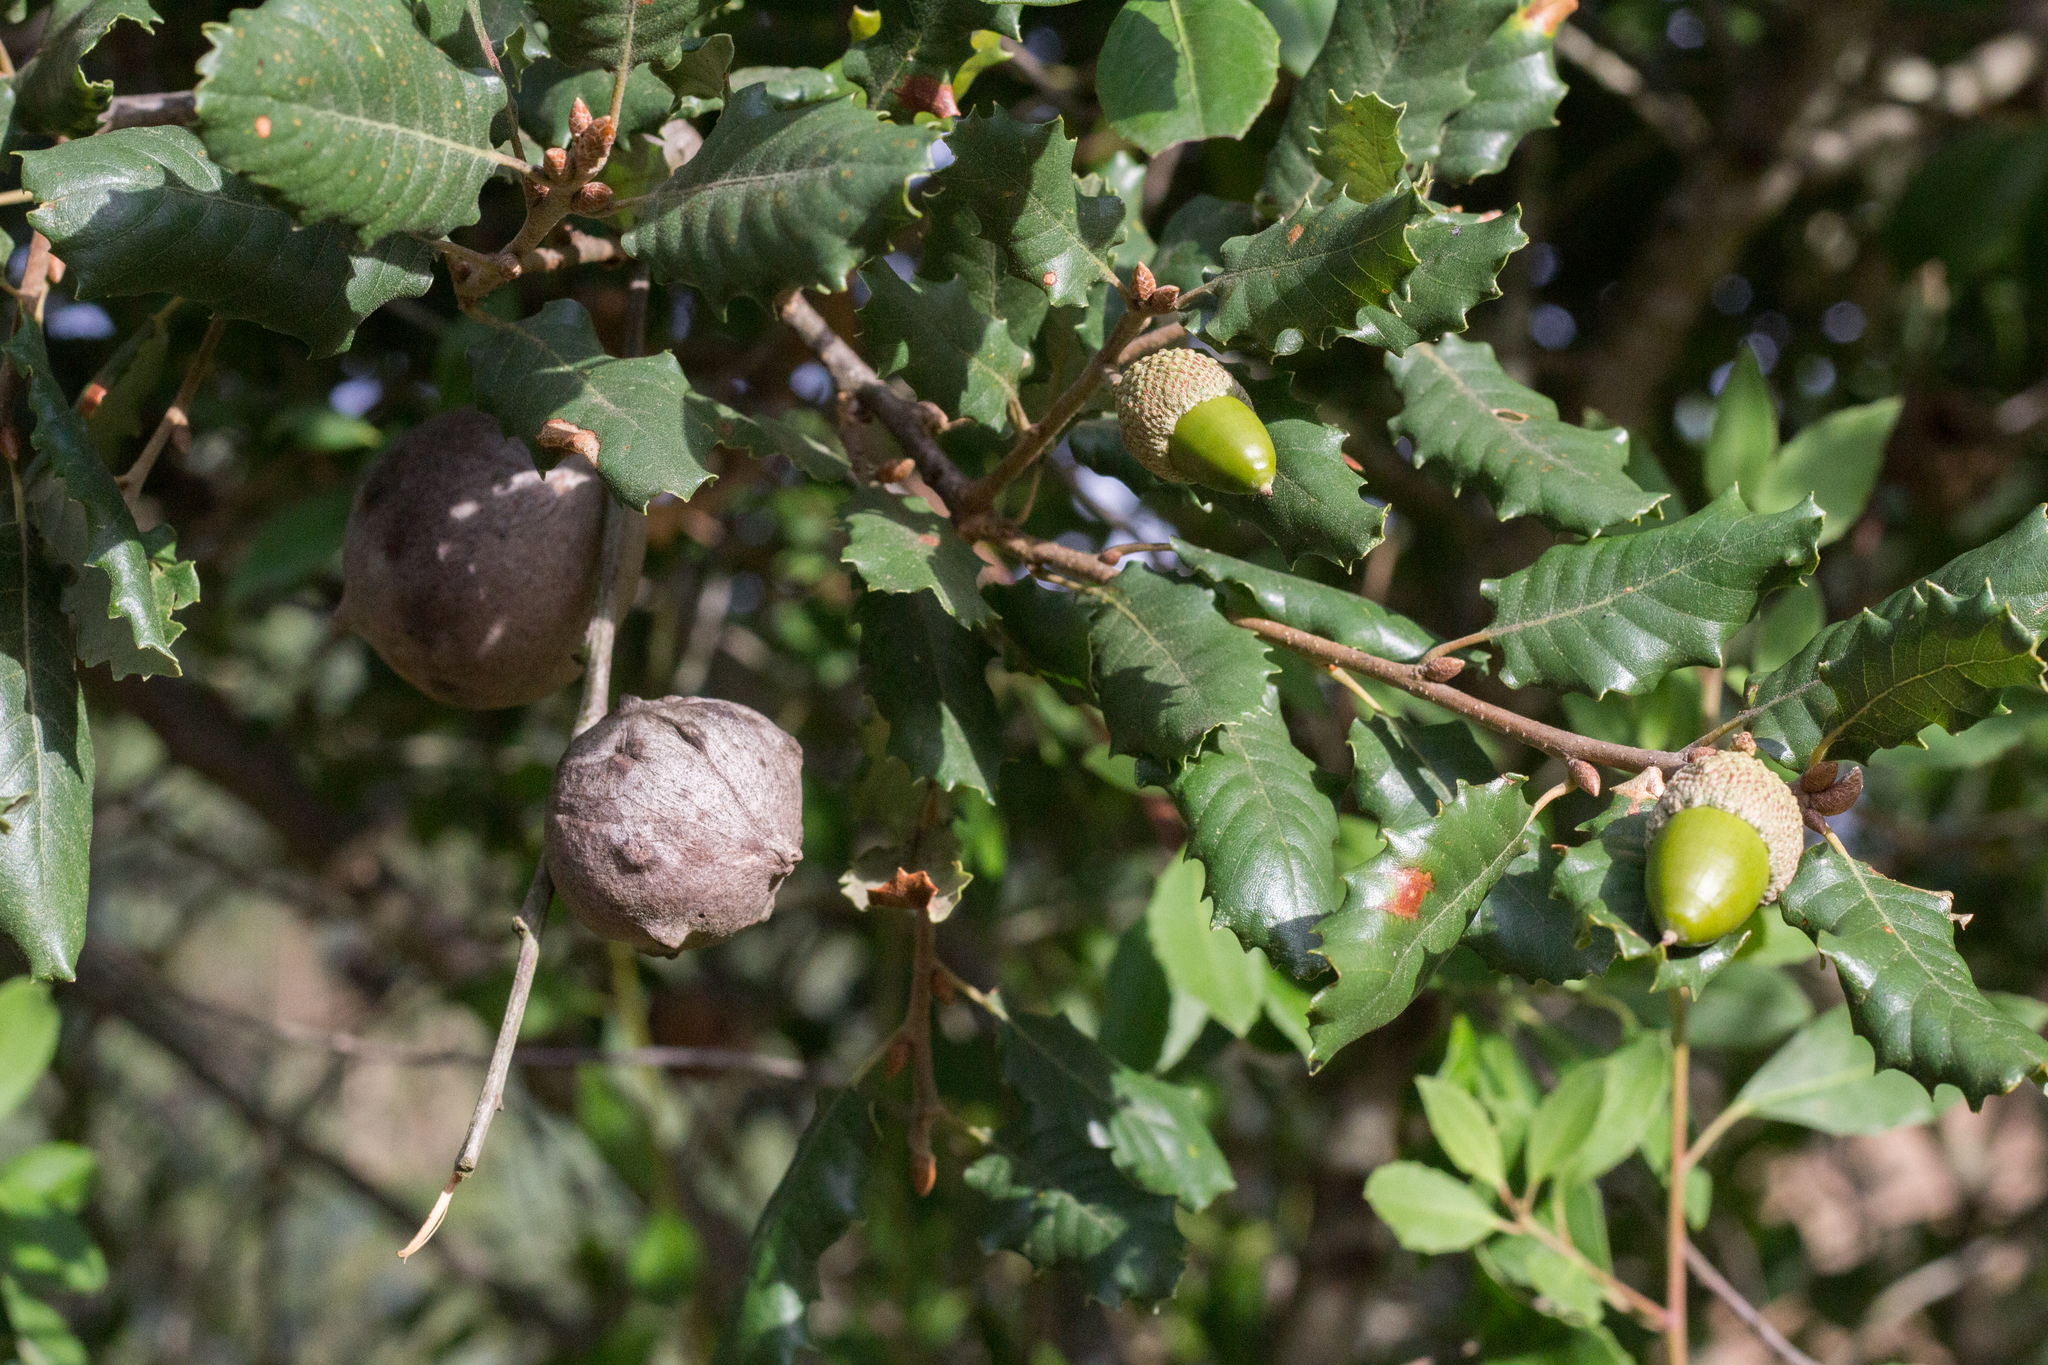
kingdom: Plantae
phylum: Tracheophyta
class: Magnoliopsida
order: Fagales
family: Fagaceae
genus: Quercus
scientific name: Quercus faginea
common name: Gall oak tree
